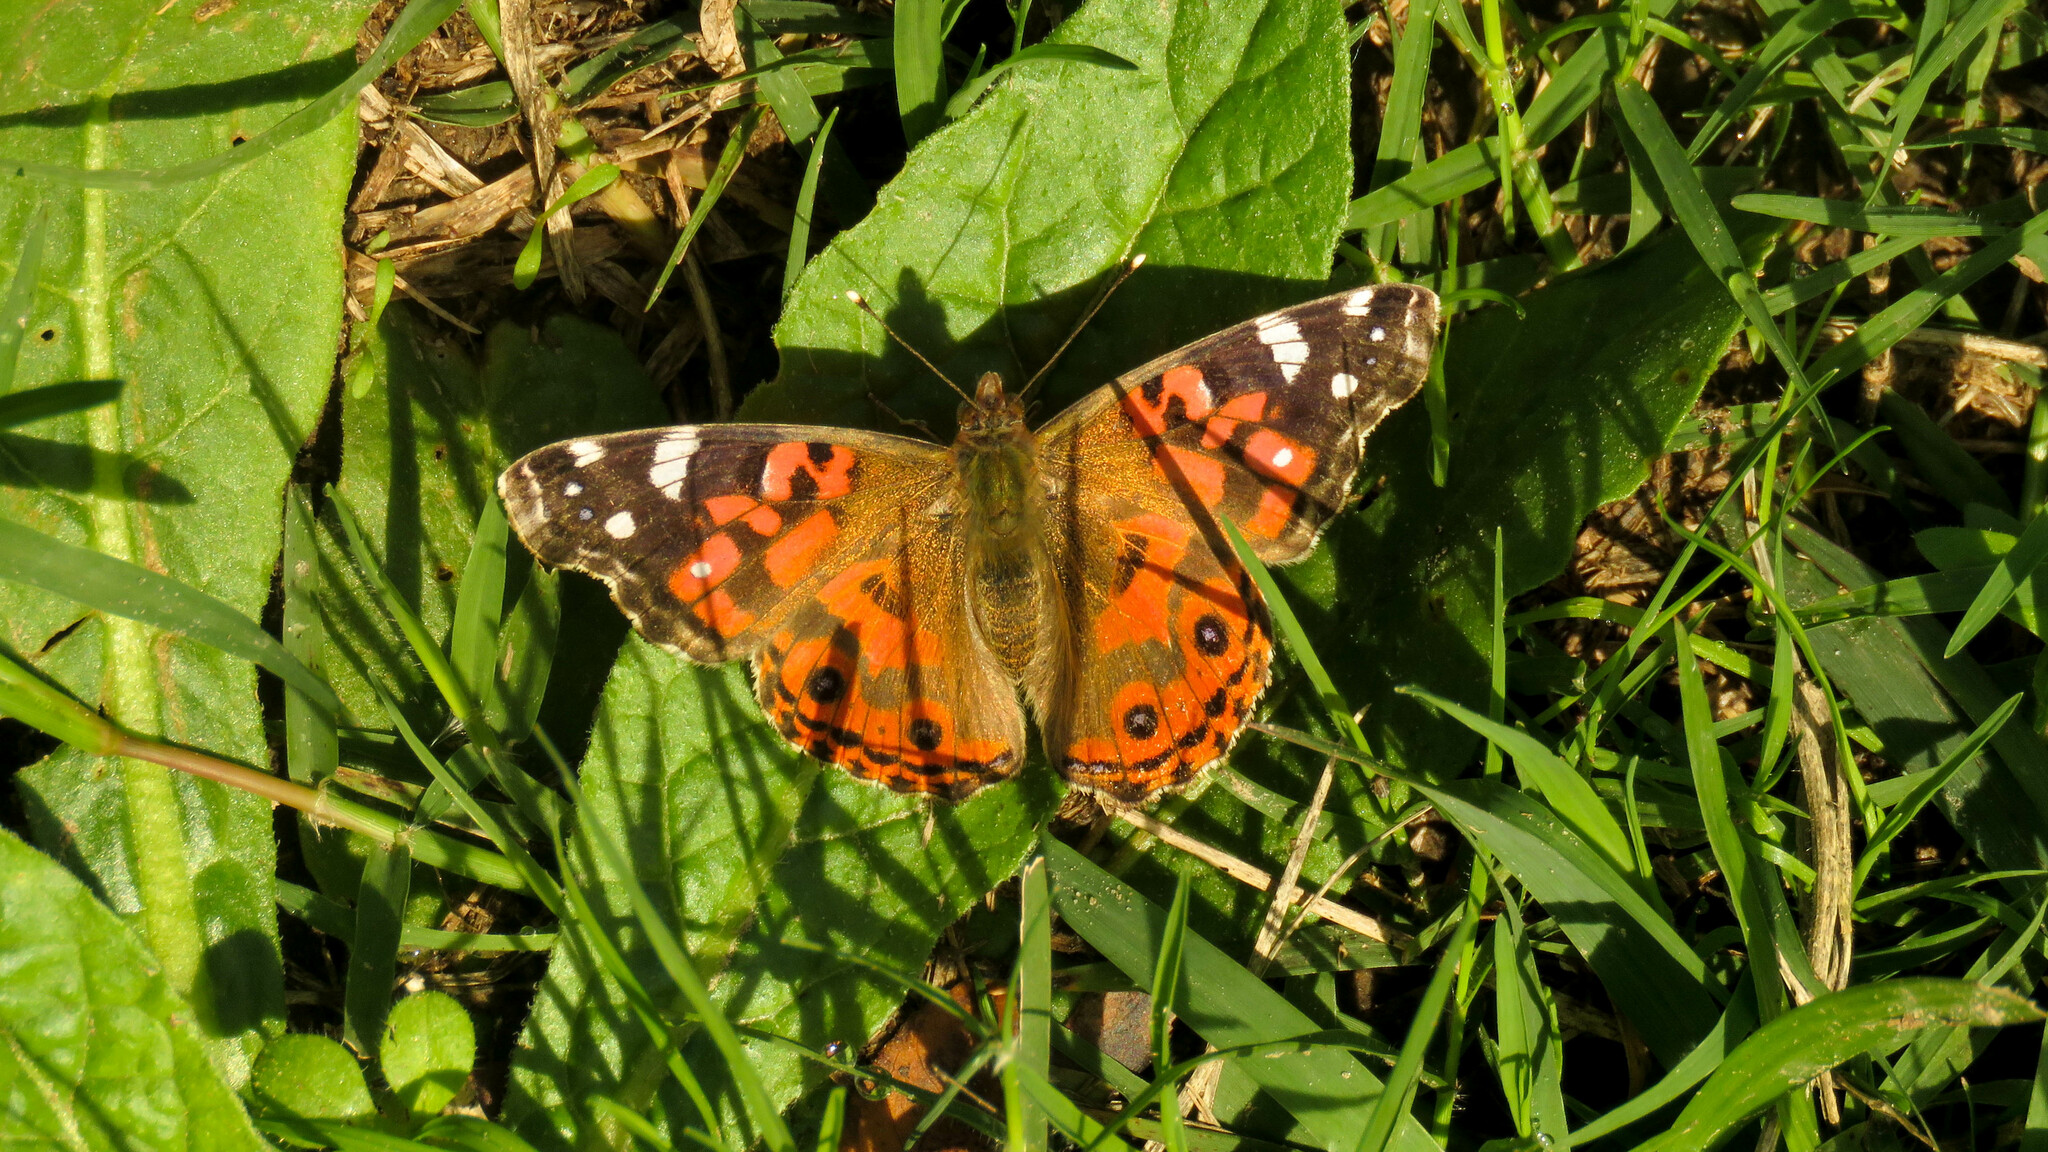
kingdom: Animalia
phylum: Arthropoda
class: Insecta
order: Lepidoptera
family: Nymphalidae
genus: Vanessa
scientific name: Vanessa braziliensis
